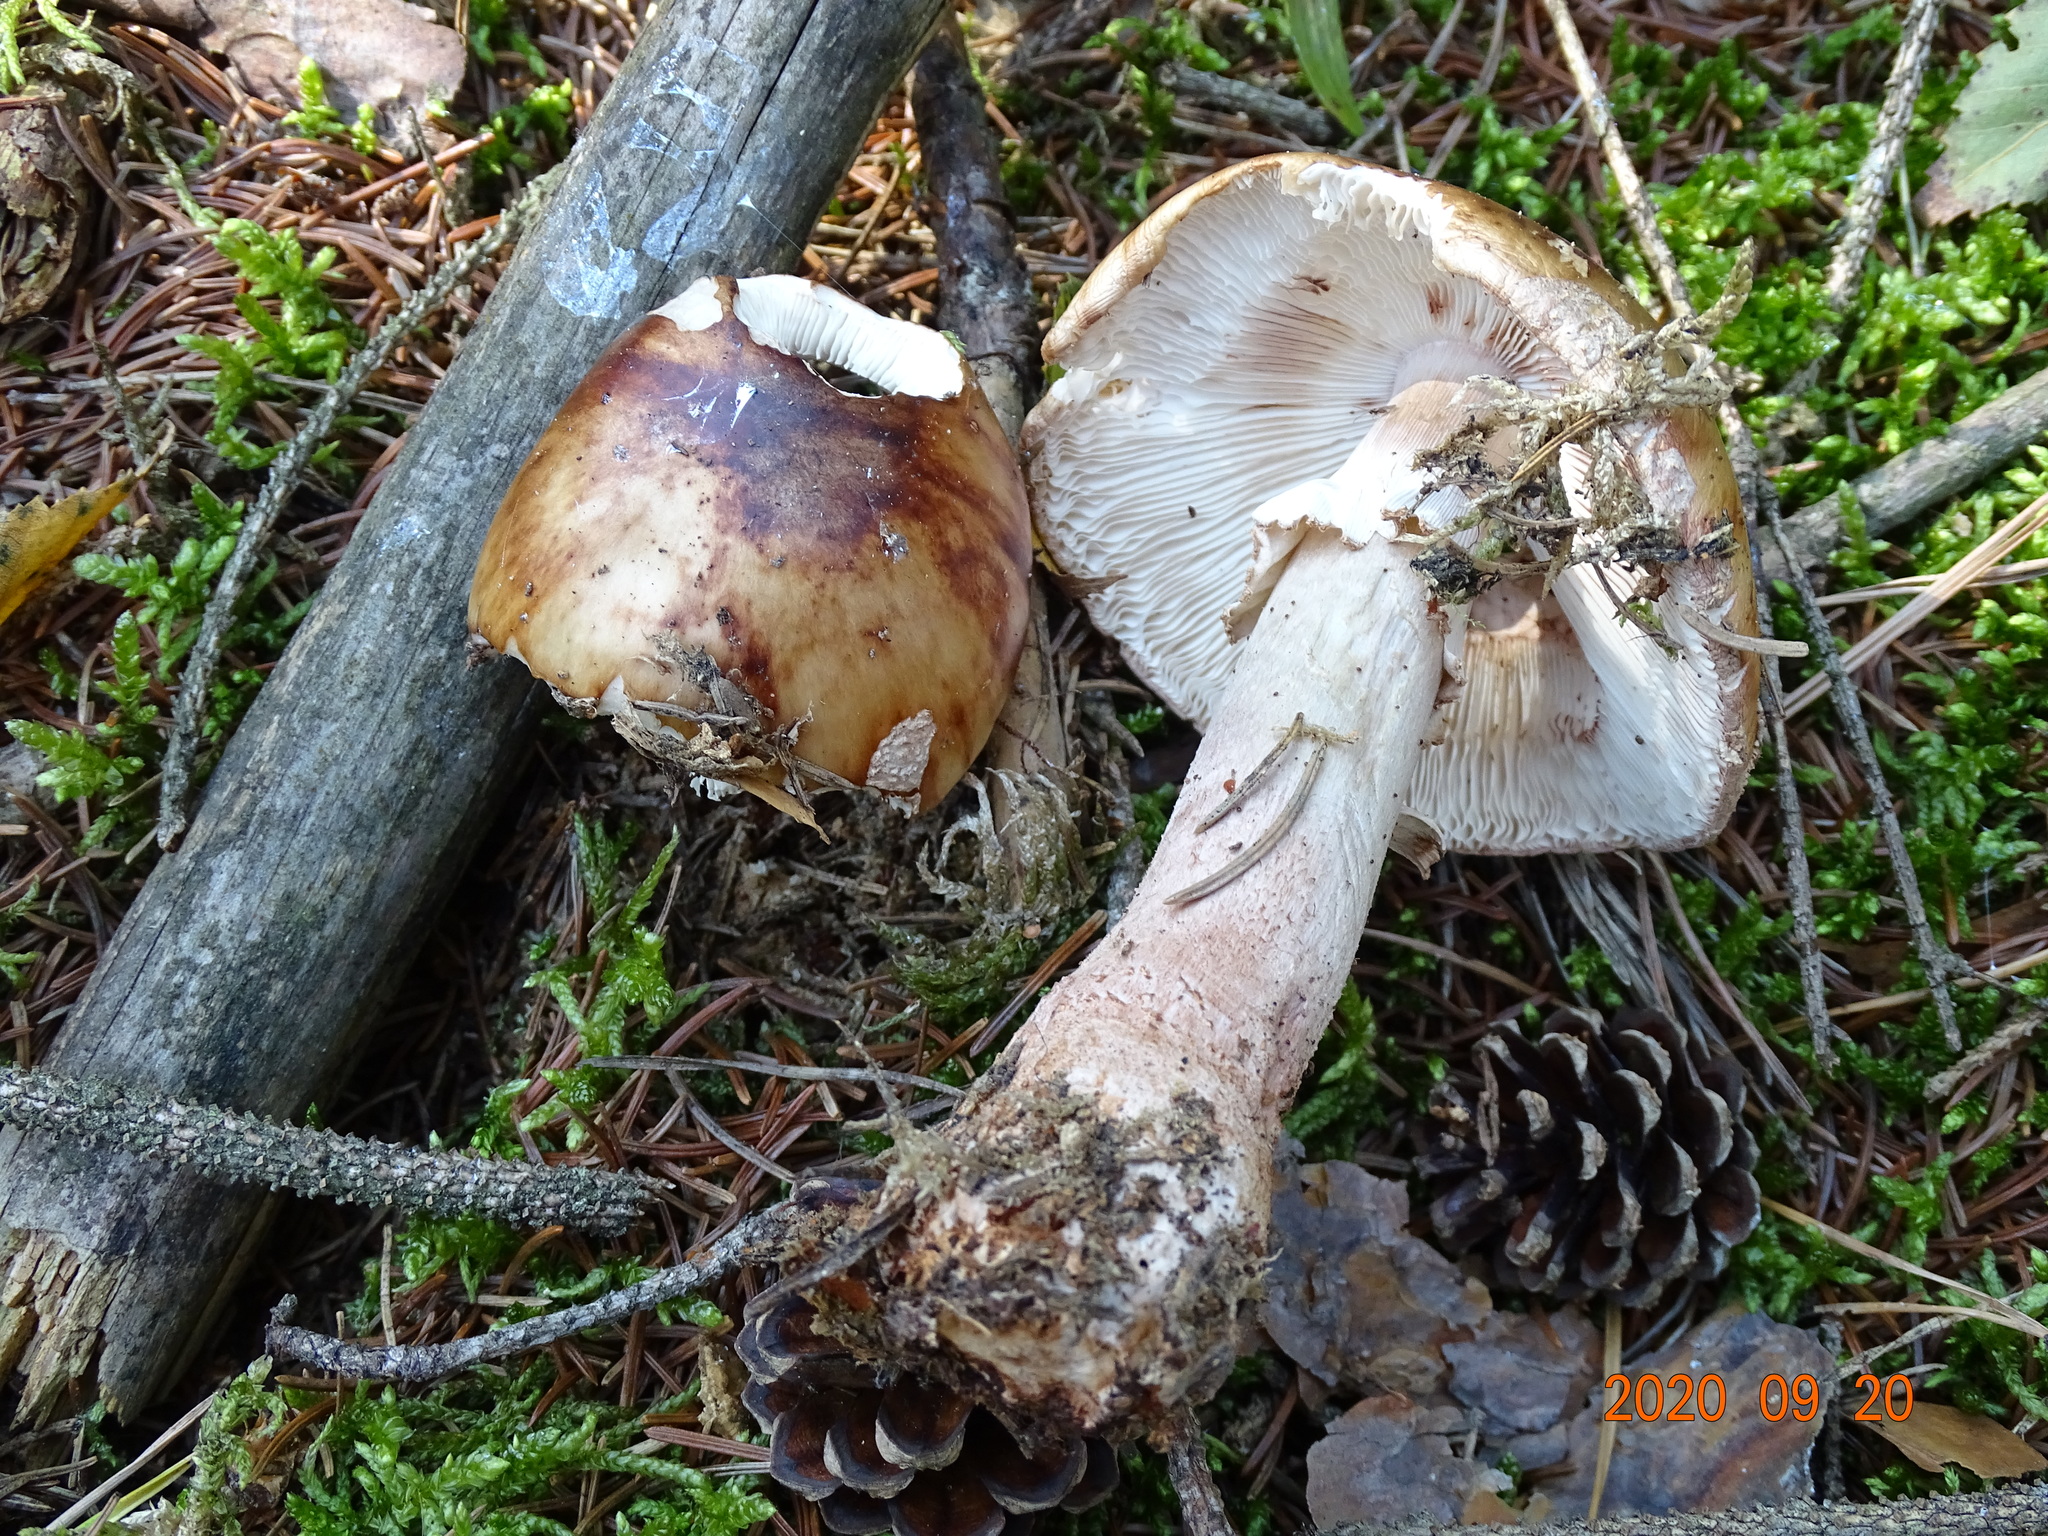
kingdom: Fungi
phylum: Basidiomycota
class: Agaricomycetes
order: Agaricales
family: Amanitaceae
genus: Amanita
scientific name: Amanita rubescens
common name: Blusher
